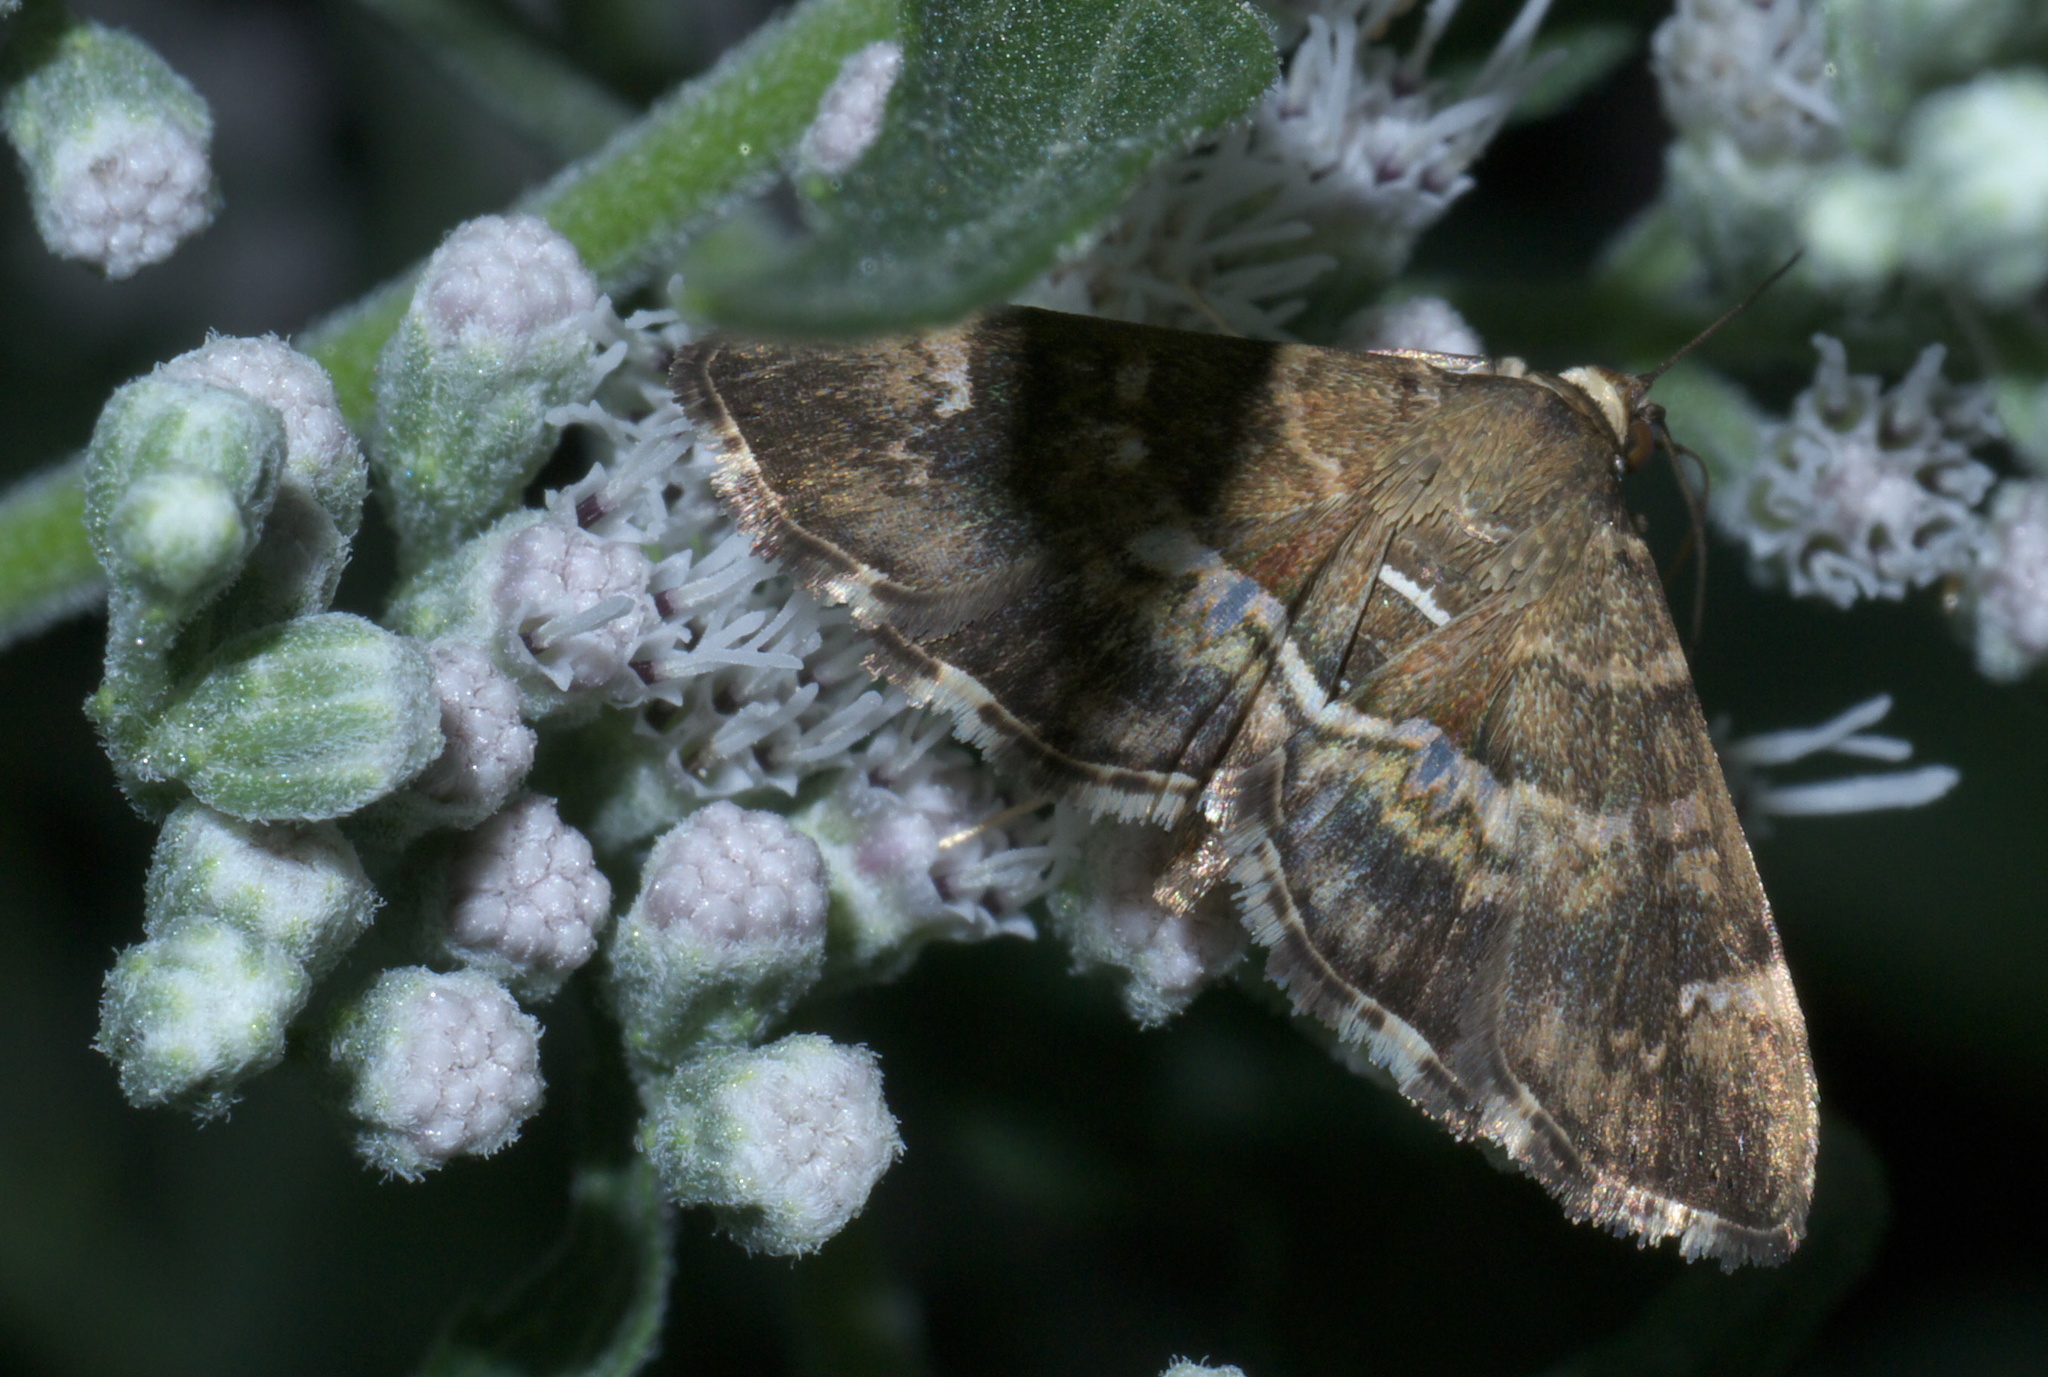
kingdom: Animalia
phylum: Arthropoda
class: Insecta
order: Lepidoptera
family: Crambidae
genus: Hymenia
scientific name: Hymenia perspectalis
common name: Spotted beet webworm
